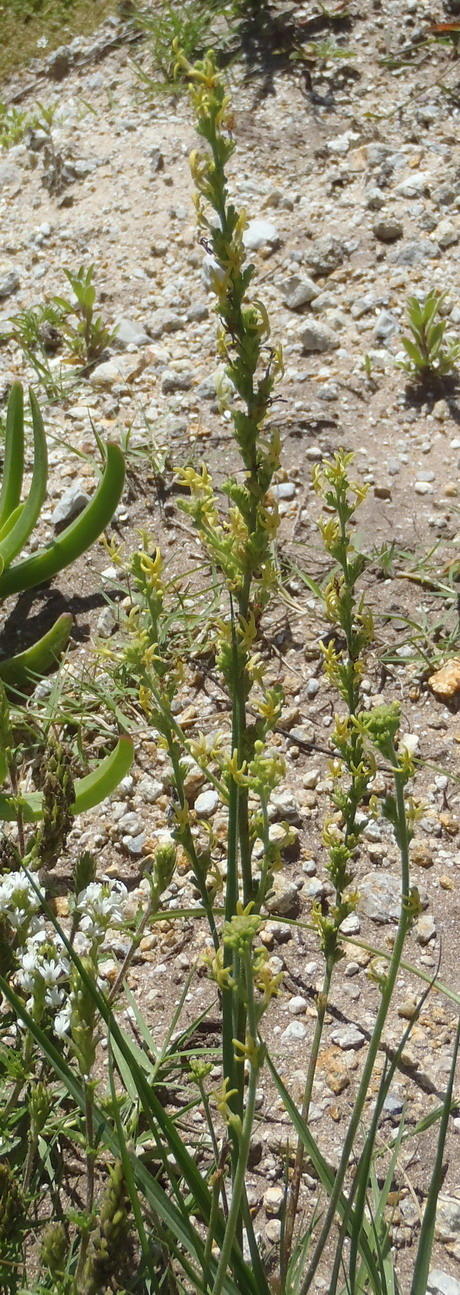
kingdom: Plantae
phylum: Tracheophyta
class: Magnoliopsida
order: Lamiales
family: Scrophulariaceae
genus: Manulea
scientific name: Manulea obovata
